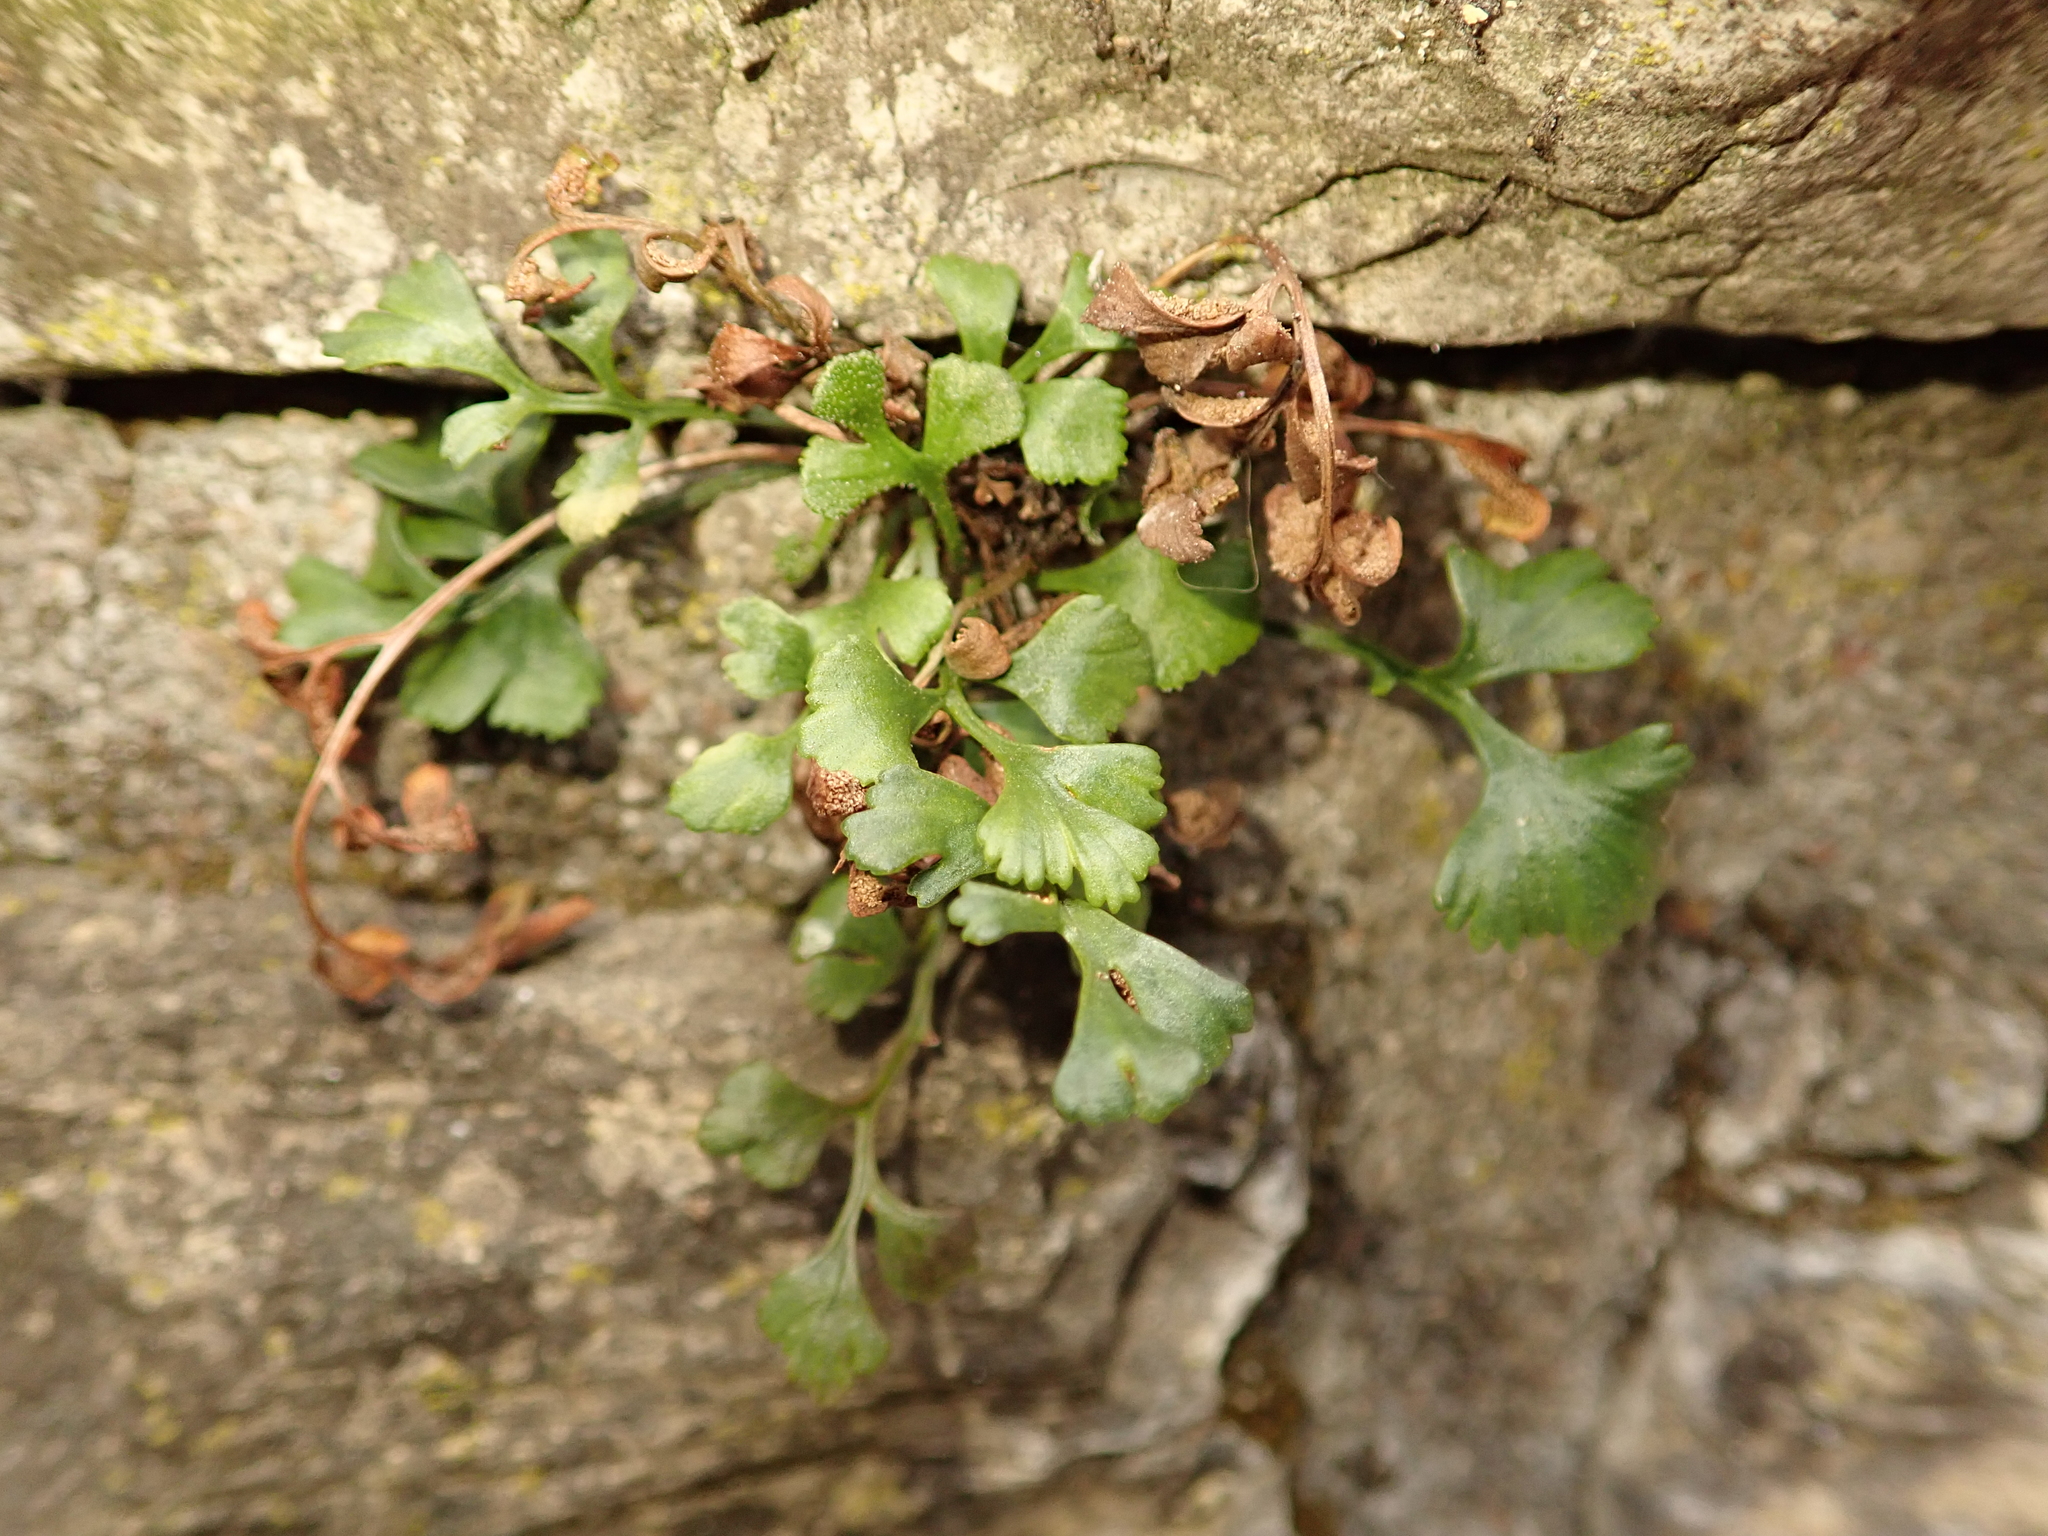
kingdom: Plantae
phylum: Tracheophyta
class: Polypodiopsida
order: Polypodiales
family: Aspleniaceae
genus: Asplenium
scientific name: Asplenium ruta-muraria
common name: Wall-rue
